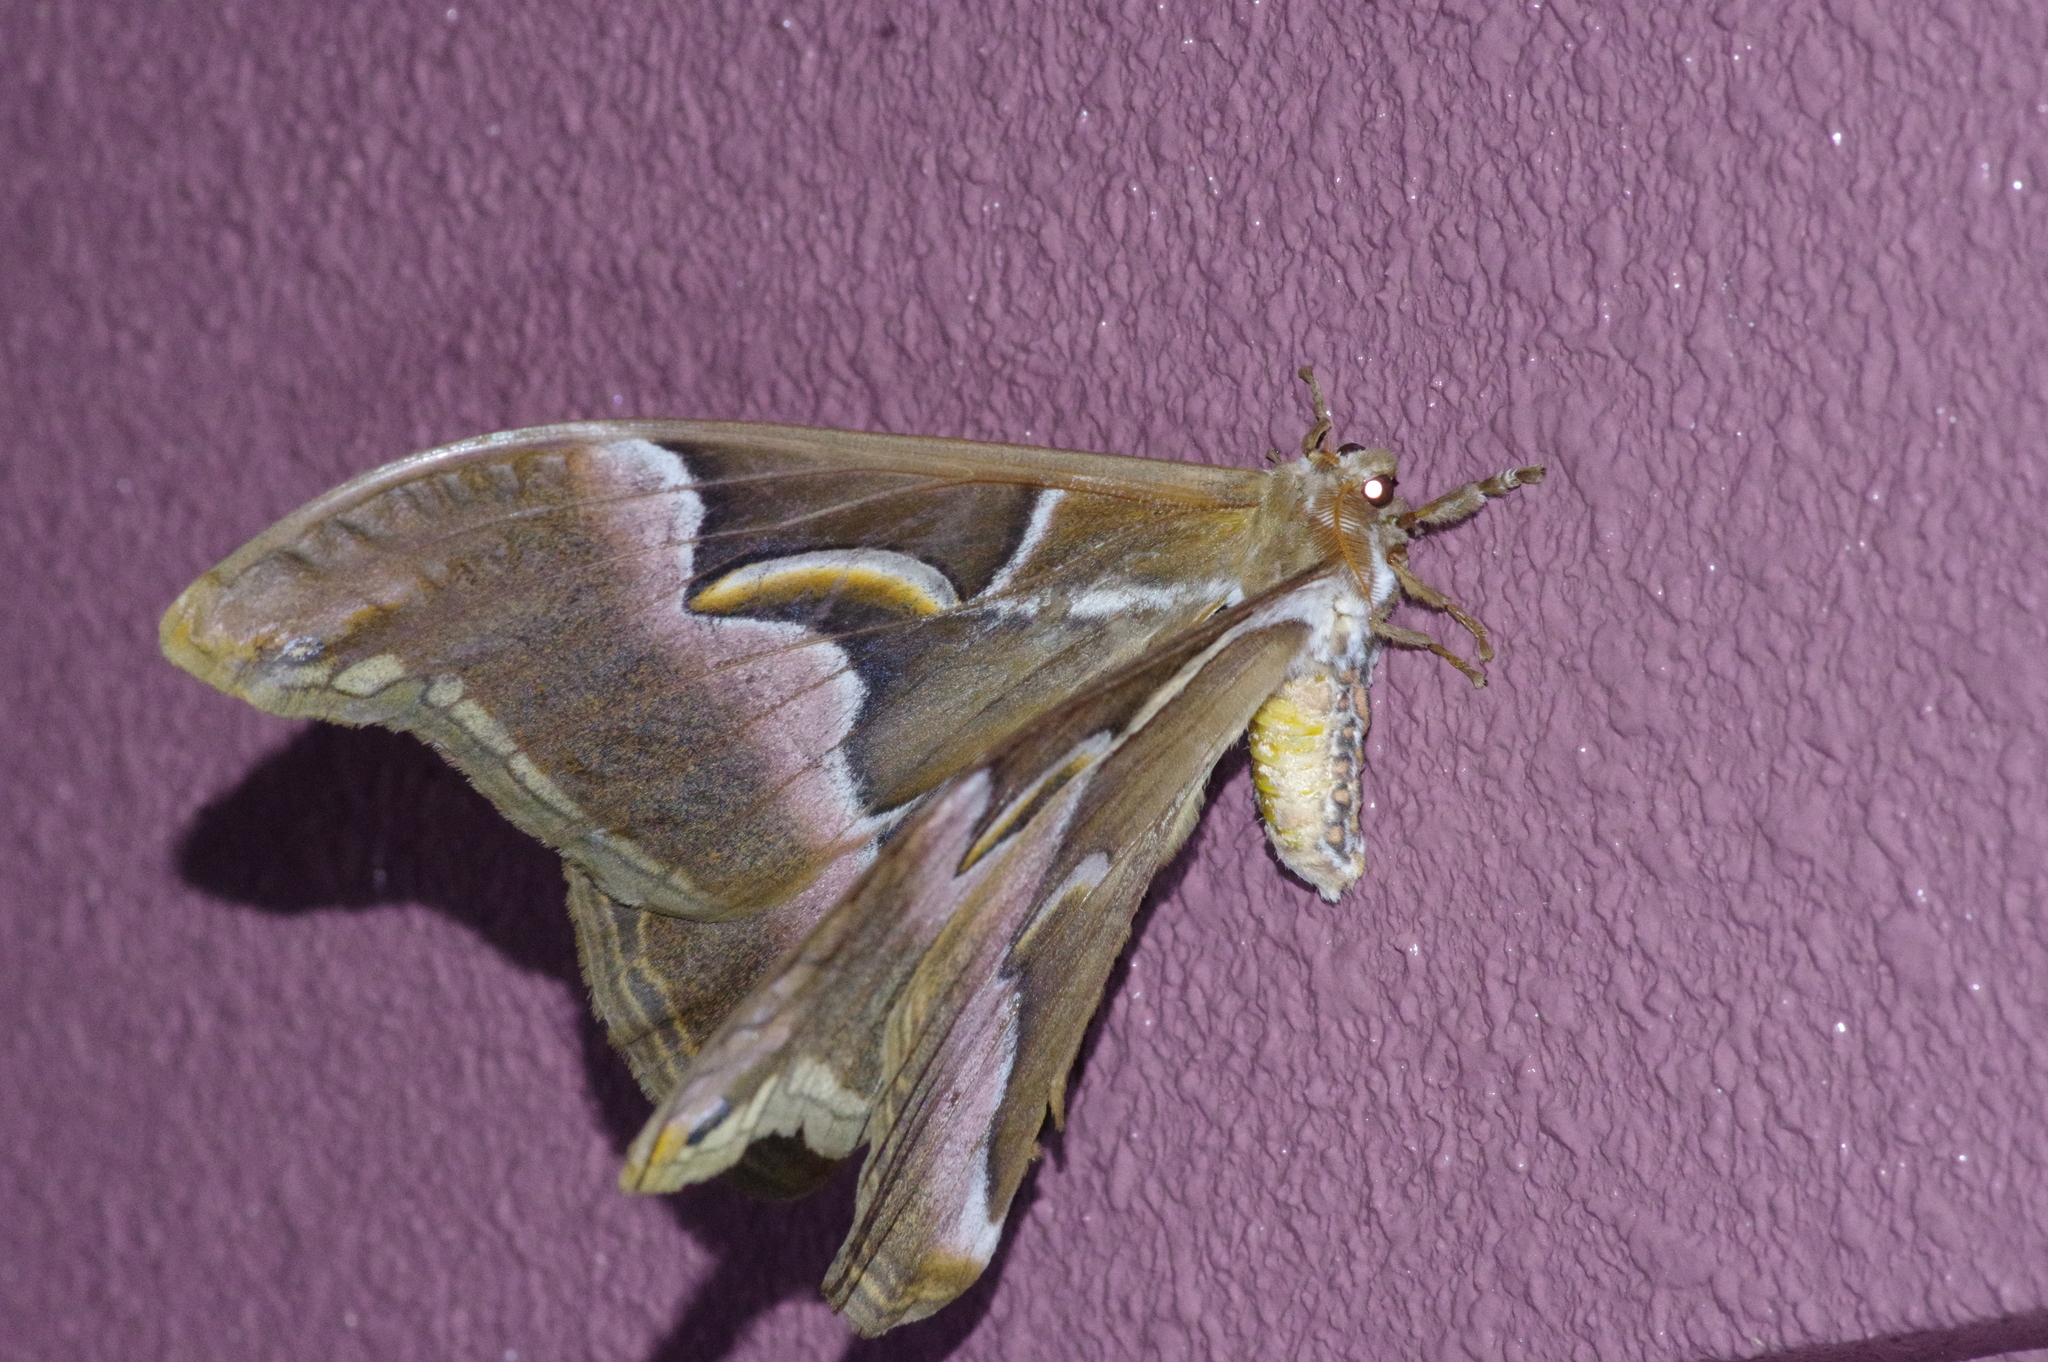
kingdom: Animalia
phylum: Arthropoda
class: Insecta
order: Lepidoptera
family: Saturniidae
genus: Samia
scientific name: Samia cynthia
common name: Ailanthus silkmoth
